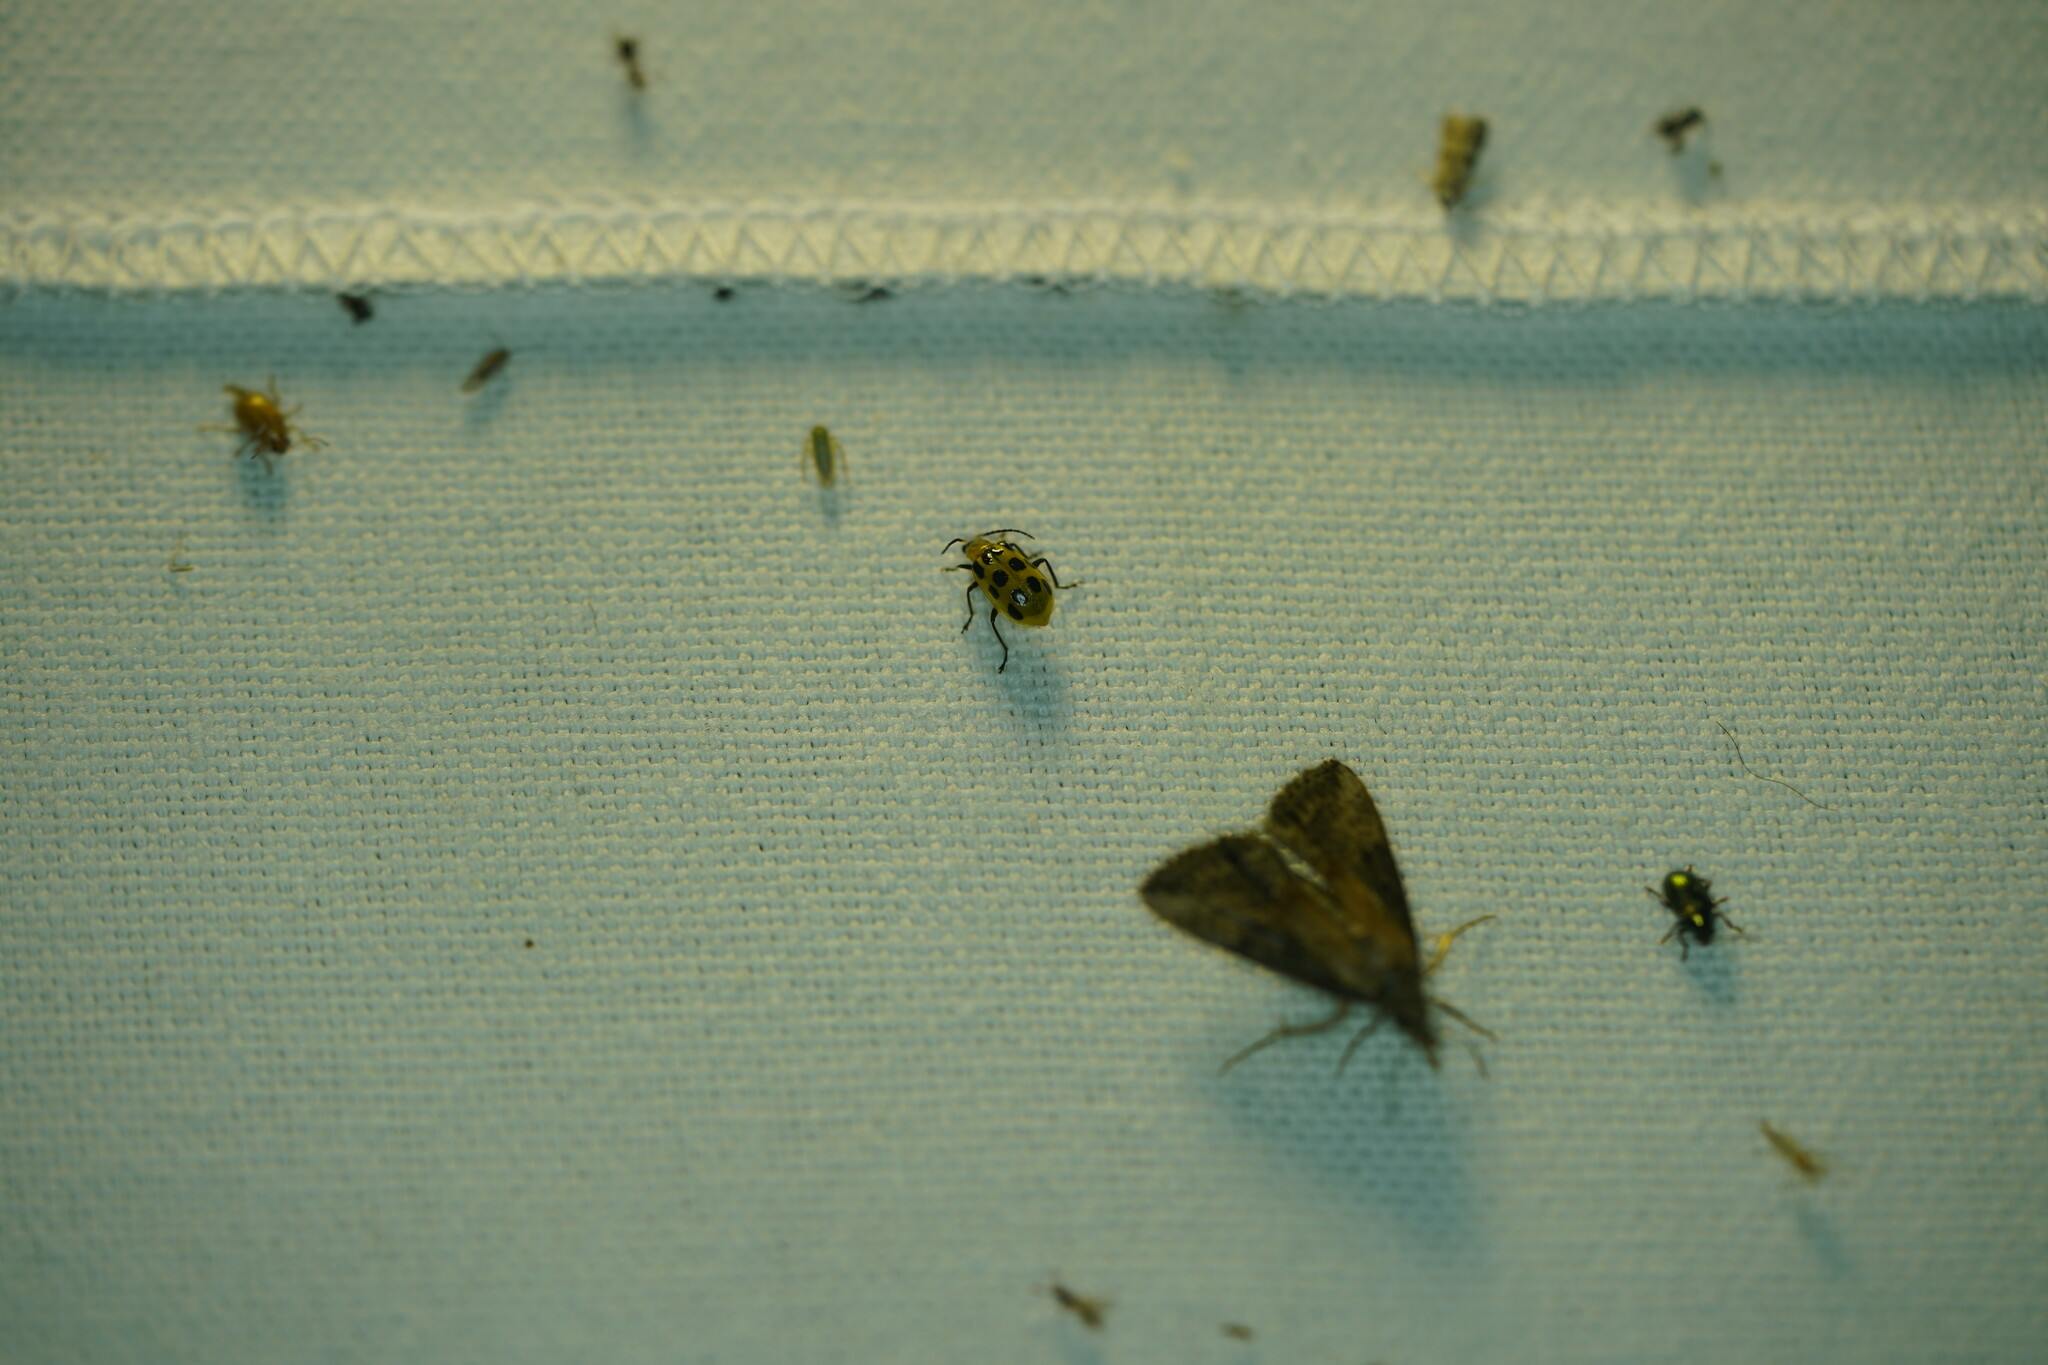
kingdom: Animalia
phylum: Arthropoda
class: Insecta
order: Coleoptera
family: Chrysomelidae
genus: Diabrotica
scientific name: Diabrotica undecimpunctata
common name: Spotted cucumber beetle
